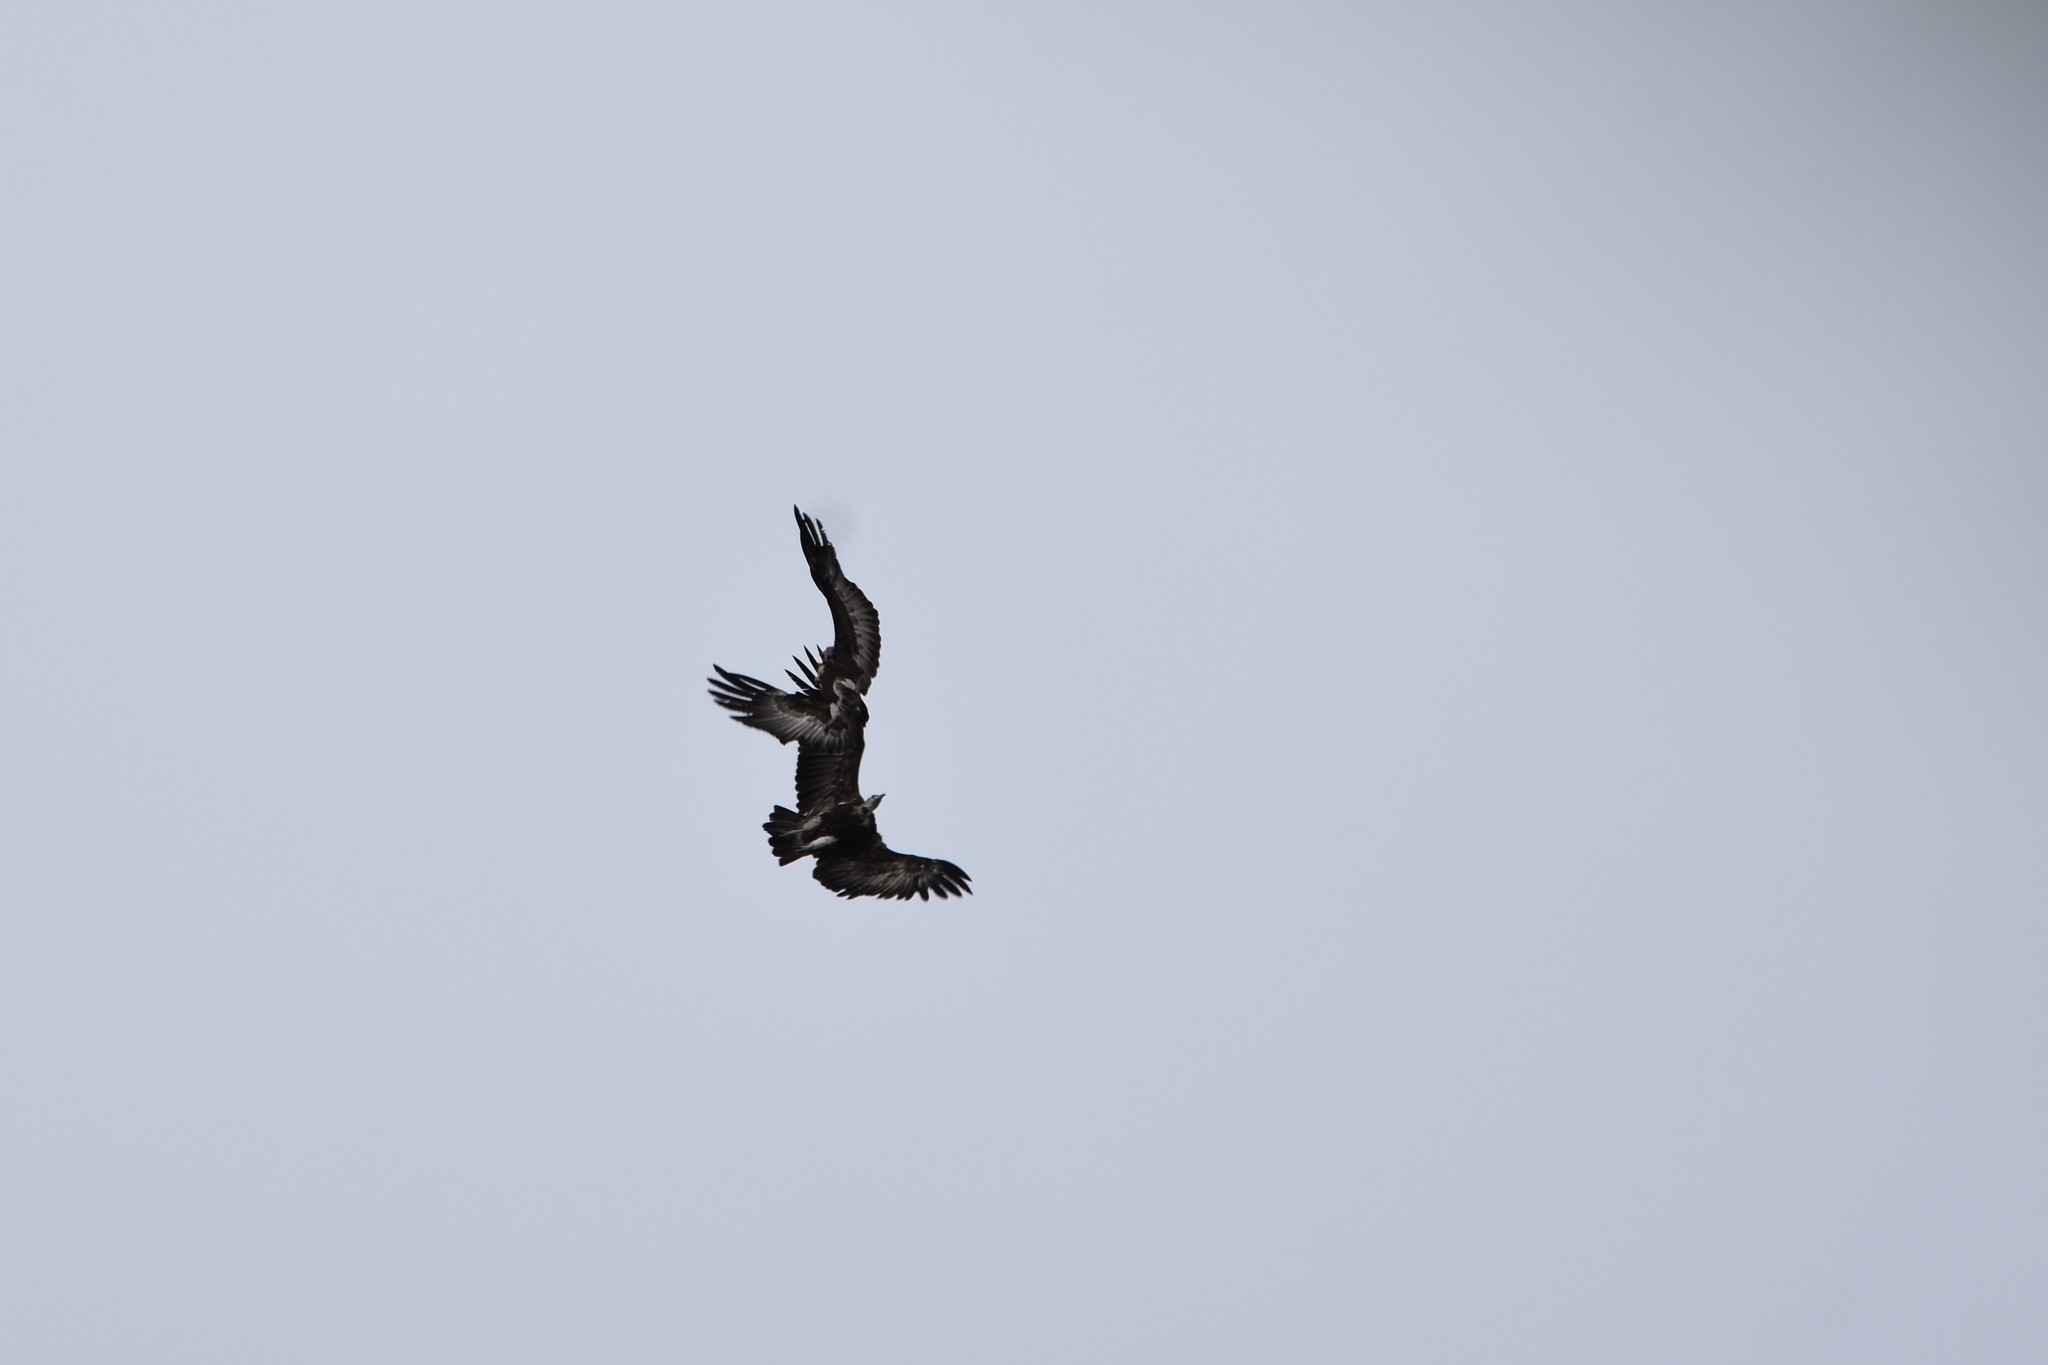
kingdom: Animalia
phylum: Chordata
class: Aves
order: Accipitriformes
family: Accipitridae
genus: Necrosyrtes
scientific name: Necrosyrtes monachus
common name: Hooded vulture
